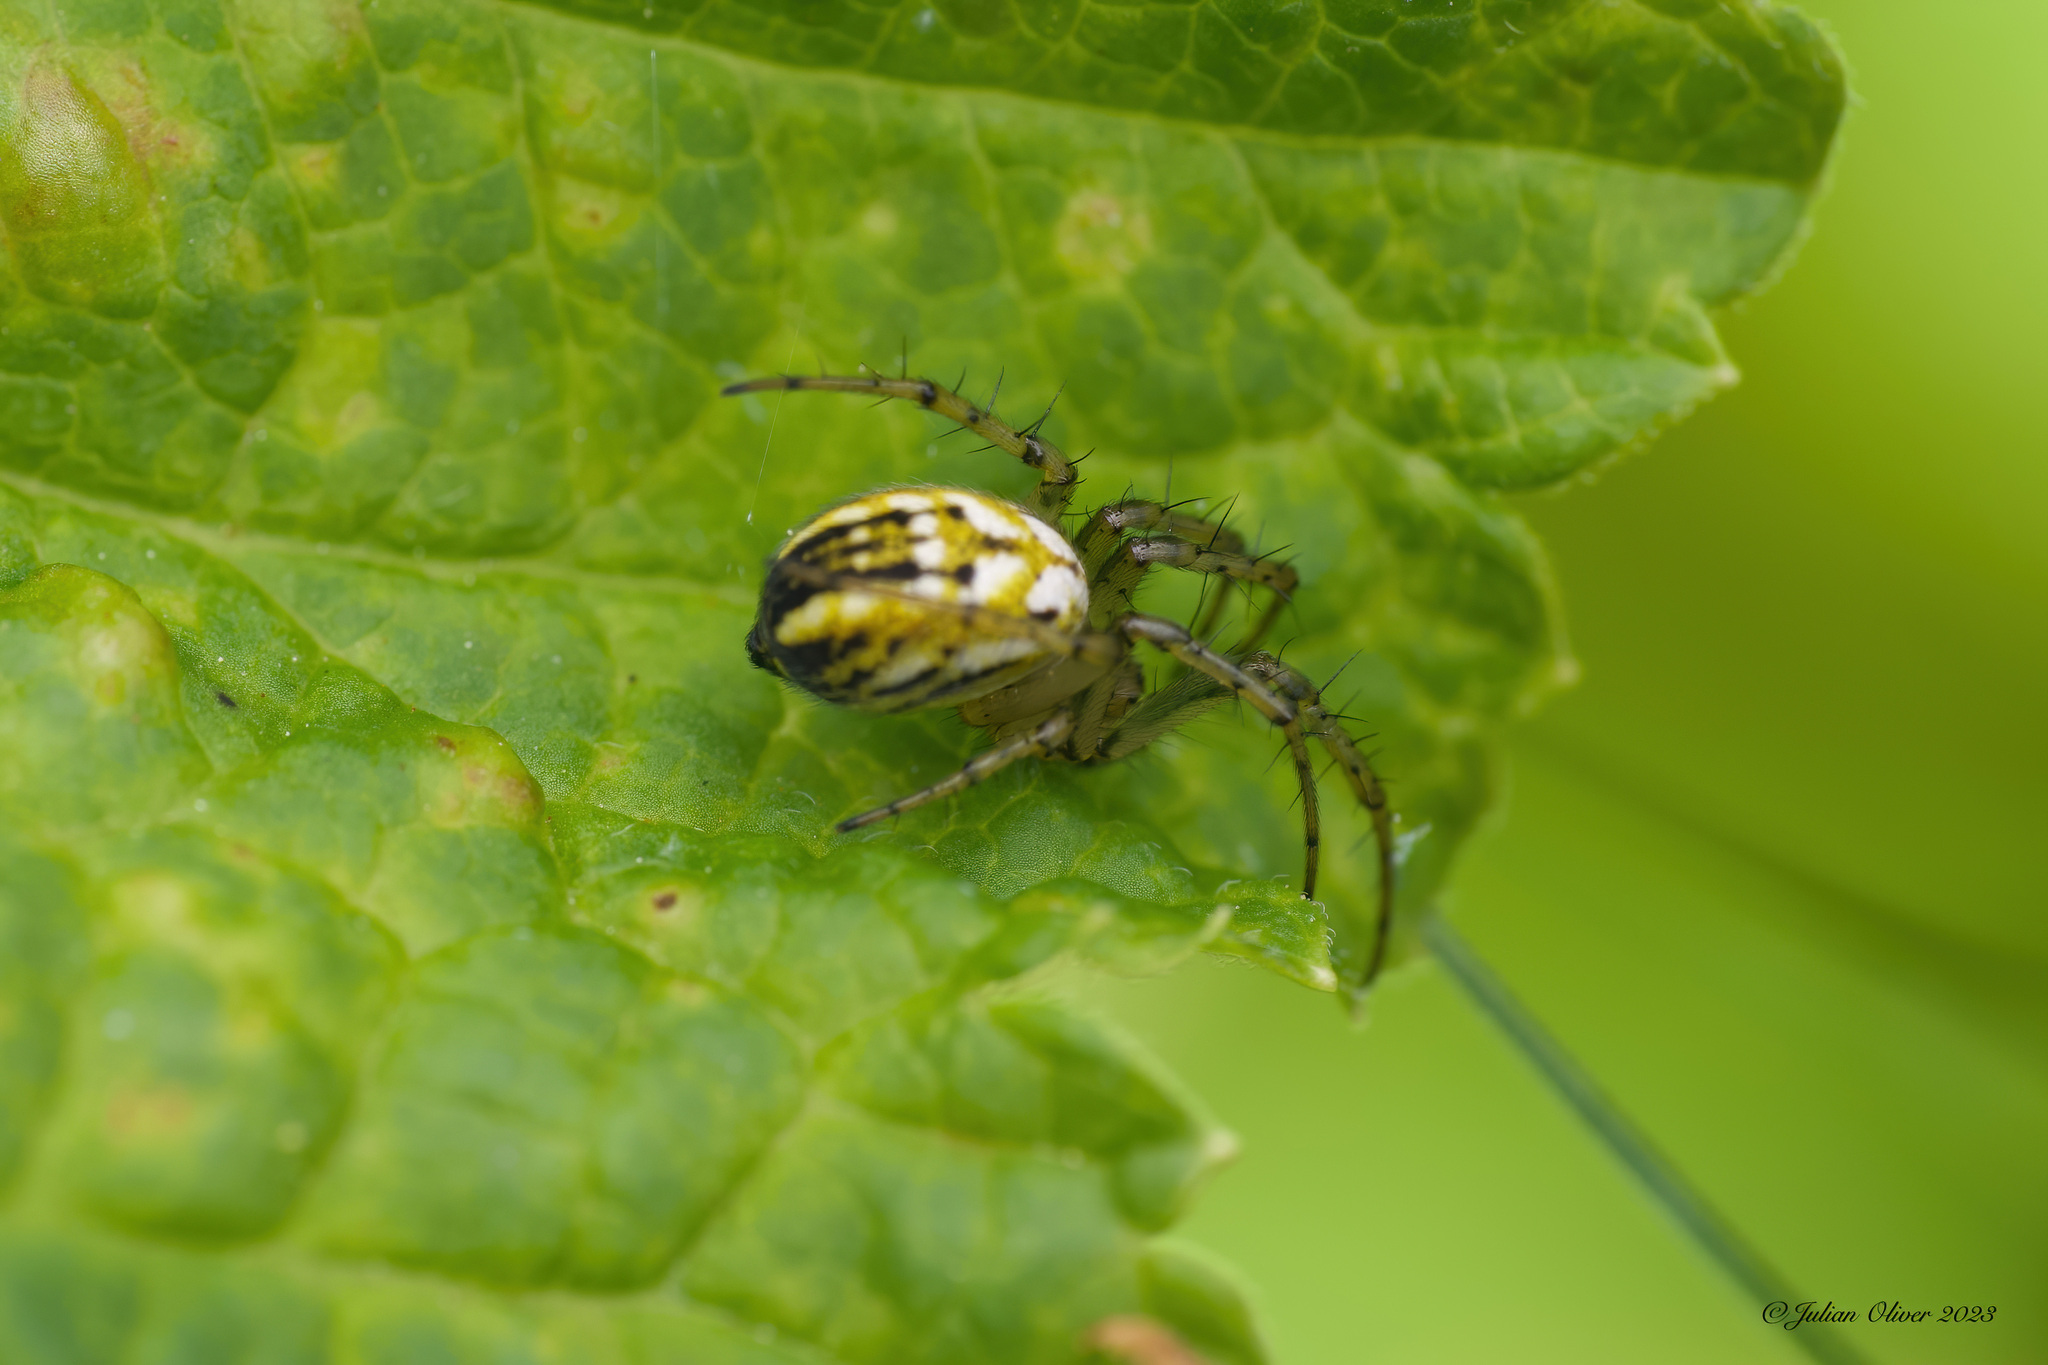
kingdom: Animalia
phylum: Arthropoda
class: Arachnida
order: Araneae
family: Araneidae
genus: Mangora
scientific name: Mangora acalypha
